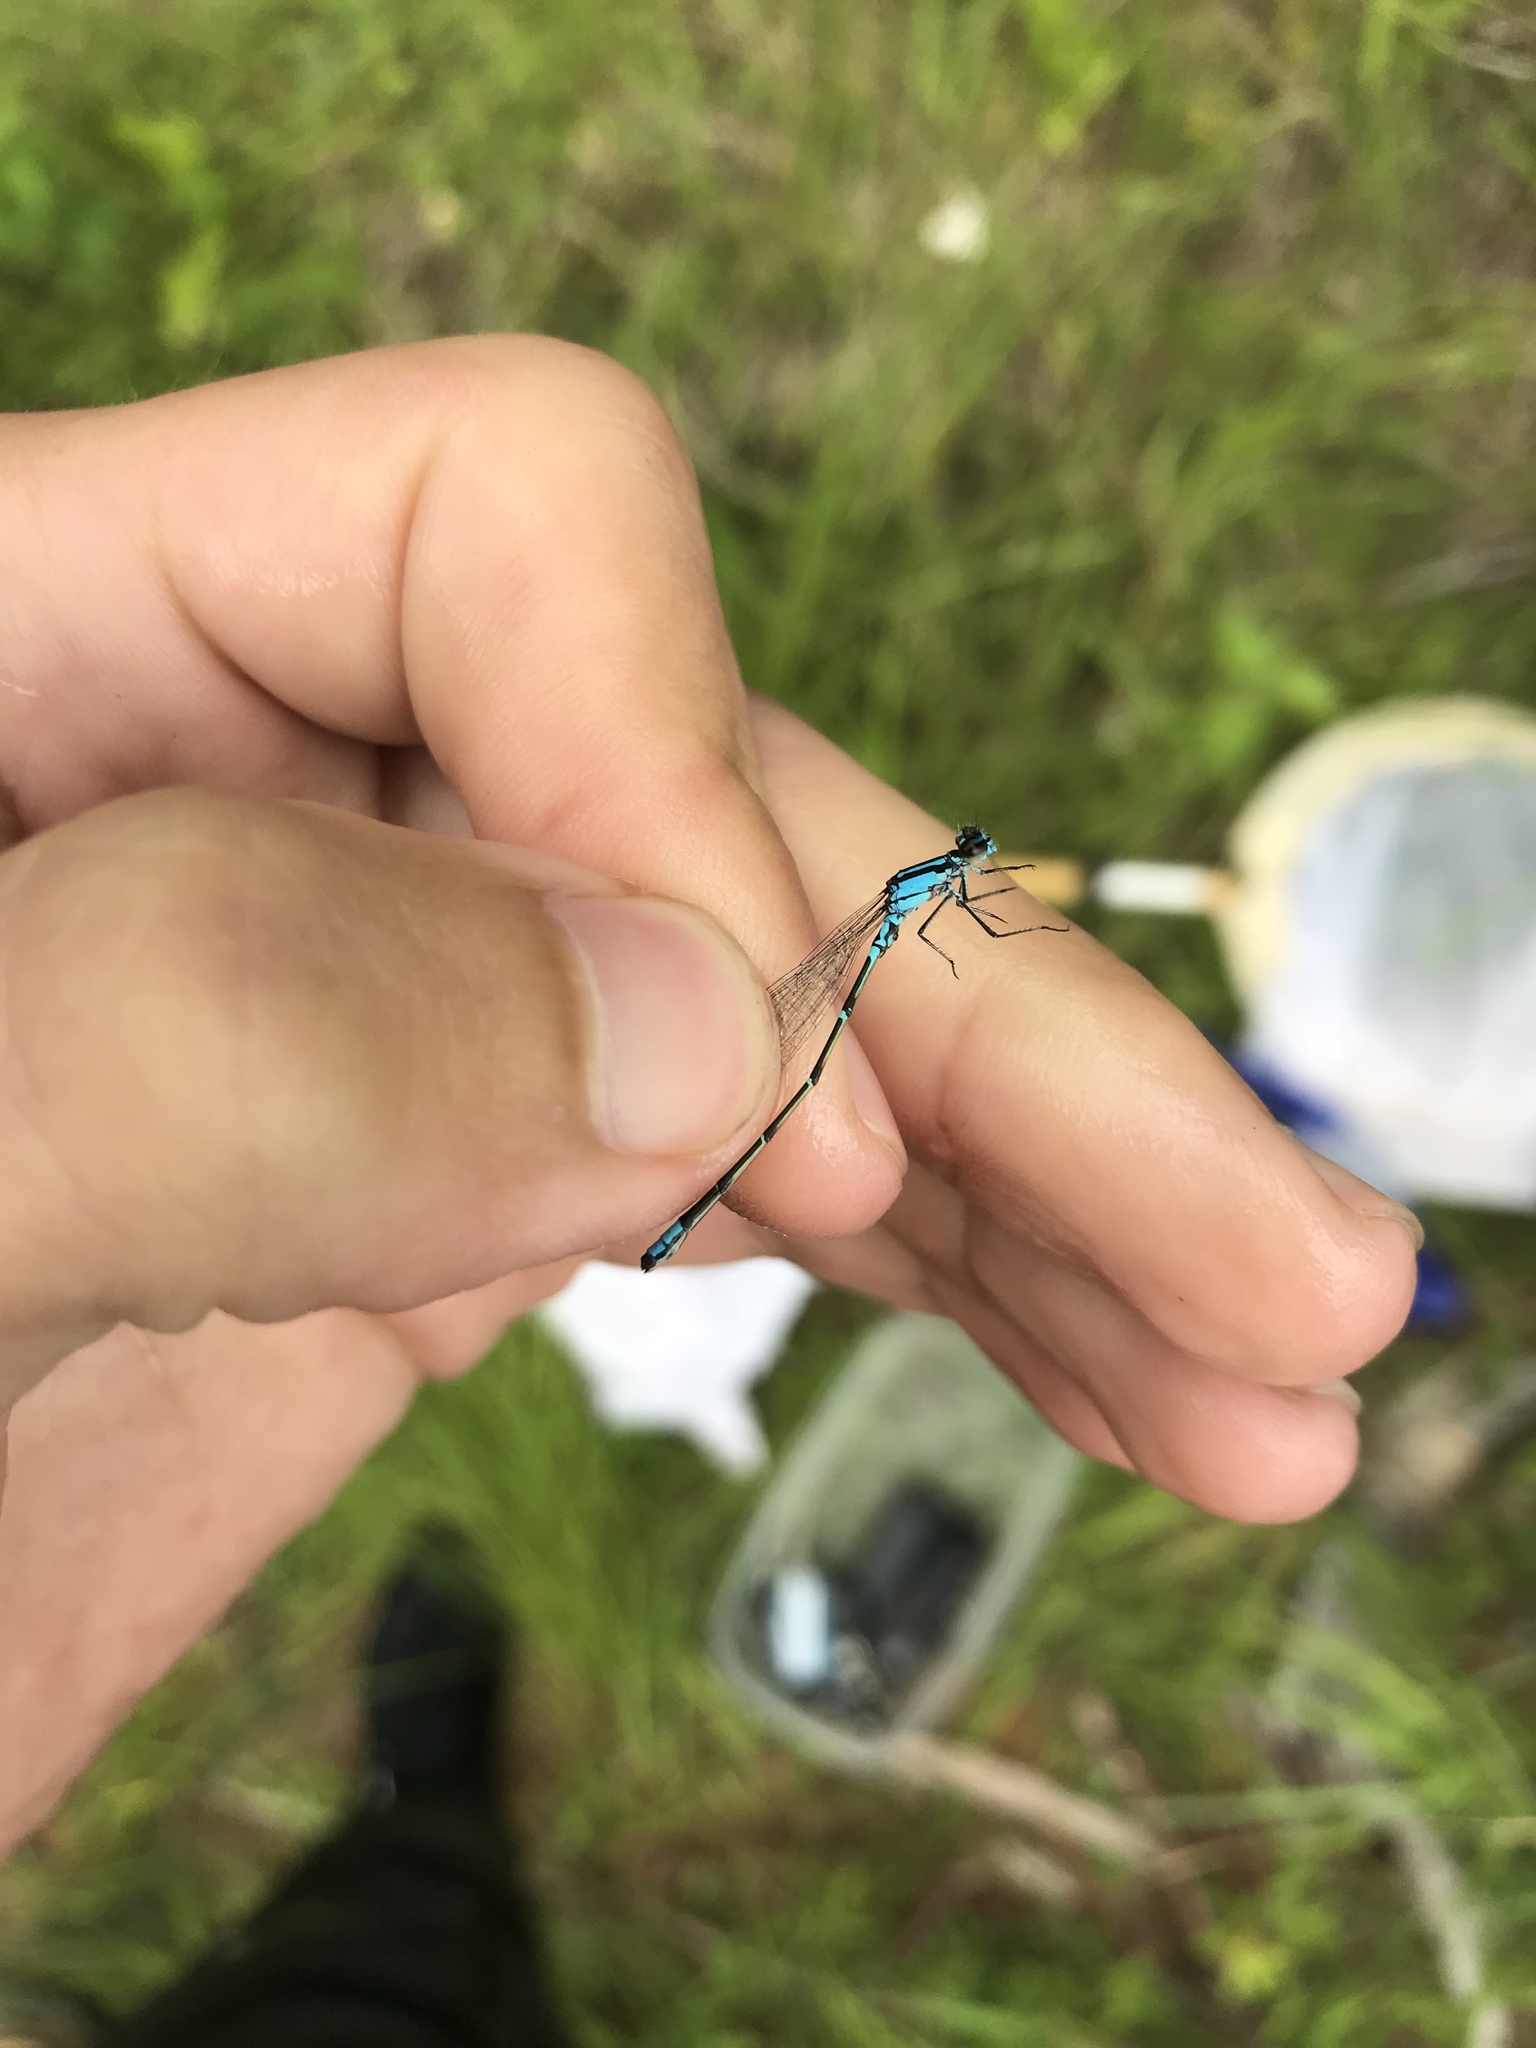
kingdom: Animalia
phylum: Arthropoda
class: Insecta
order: Odonata
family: Coenagrionidae
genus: Enallagma
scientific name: Enallagma geminatum
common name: Skimming bluet
